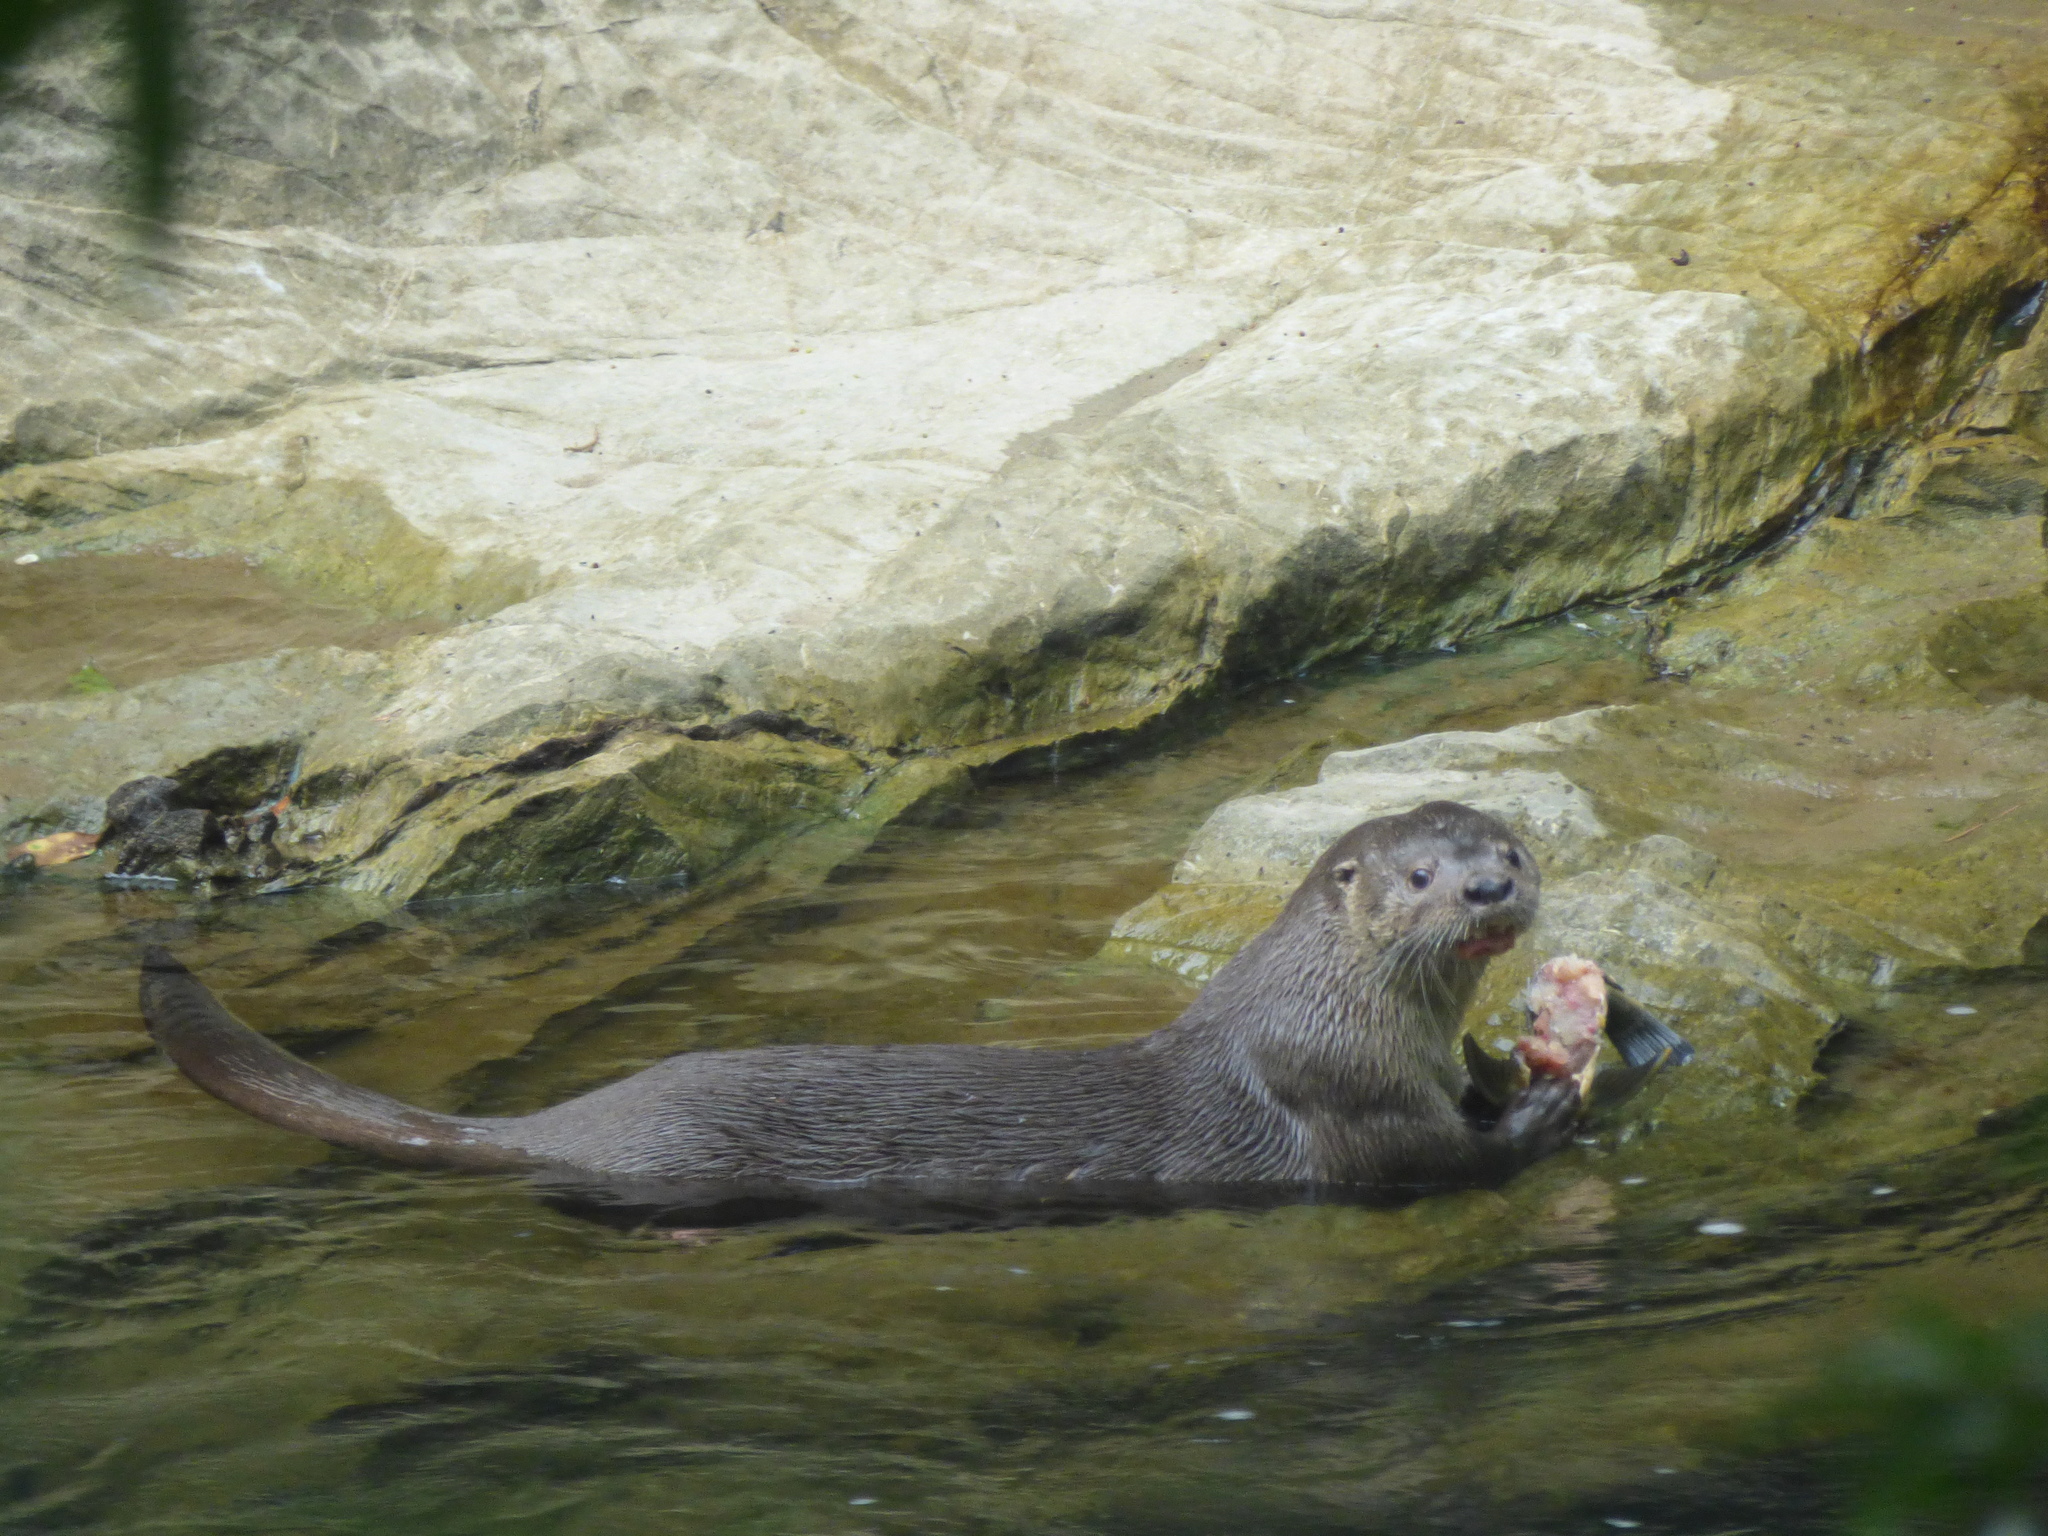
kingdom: Animalia
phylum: Chordata
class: Mammalia
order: Carnivora
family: Mustelidae
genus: Lontra
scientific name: Lontra longicaudis
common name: Neotropical otter
